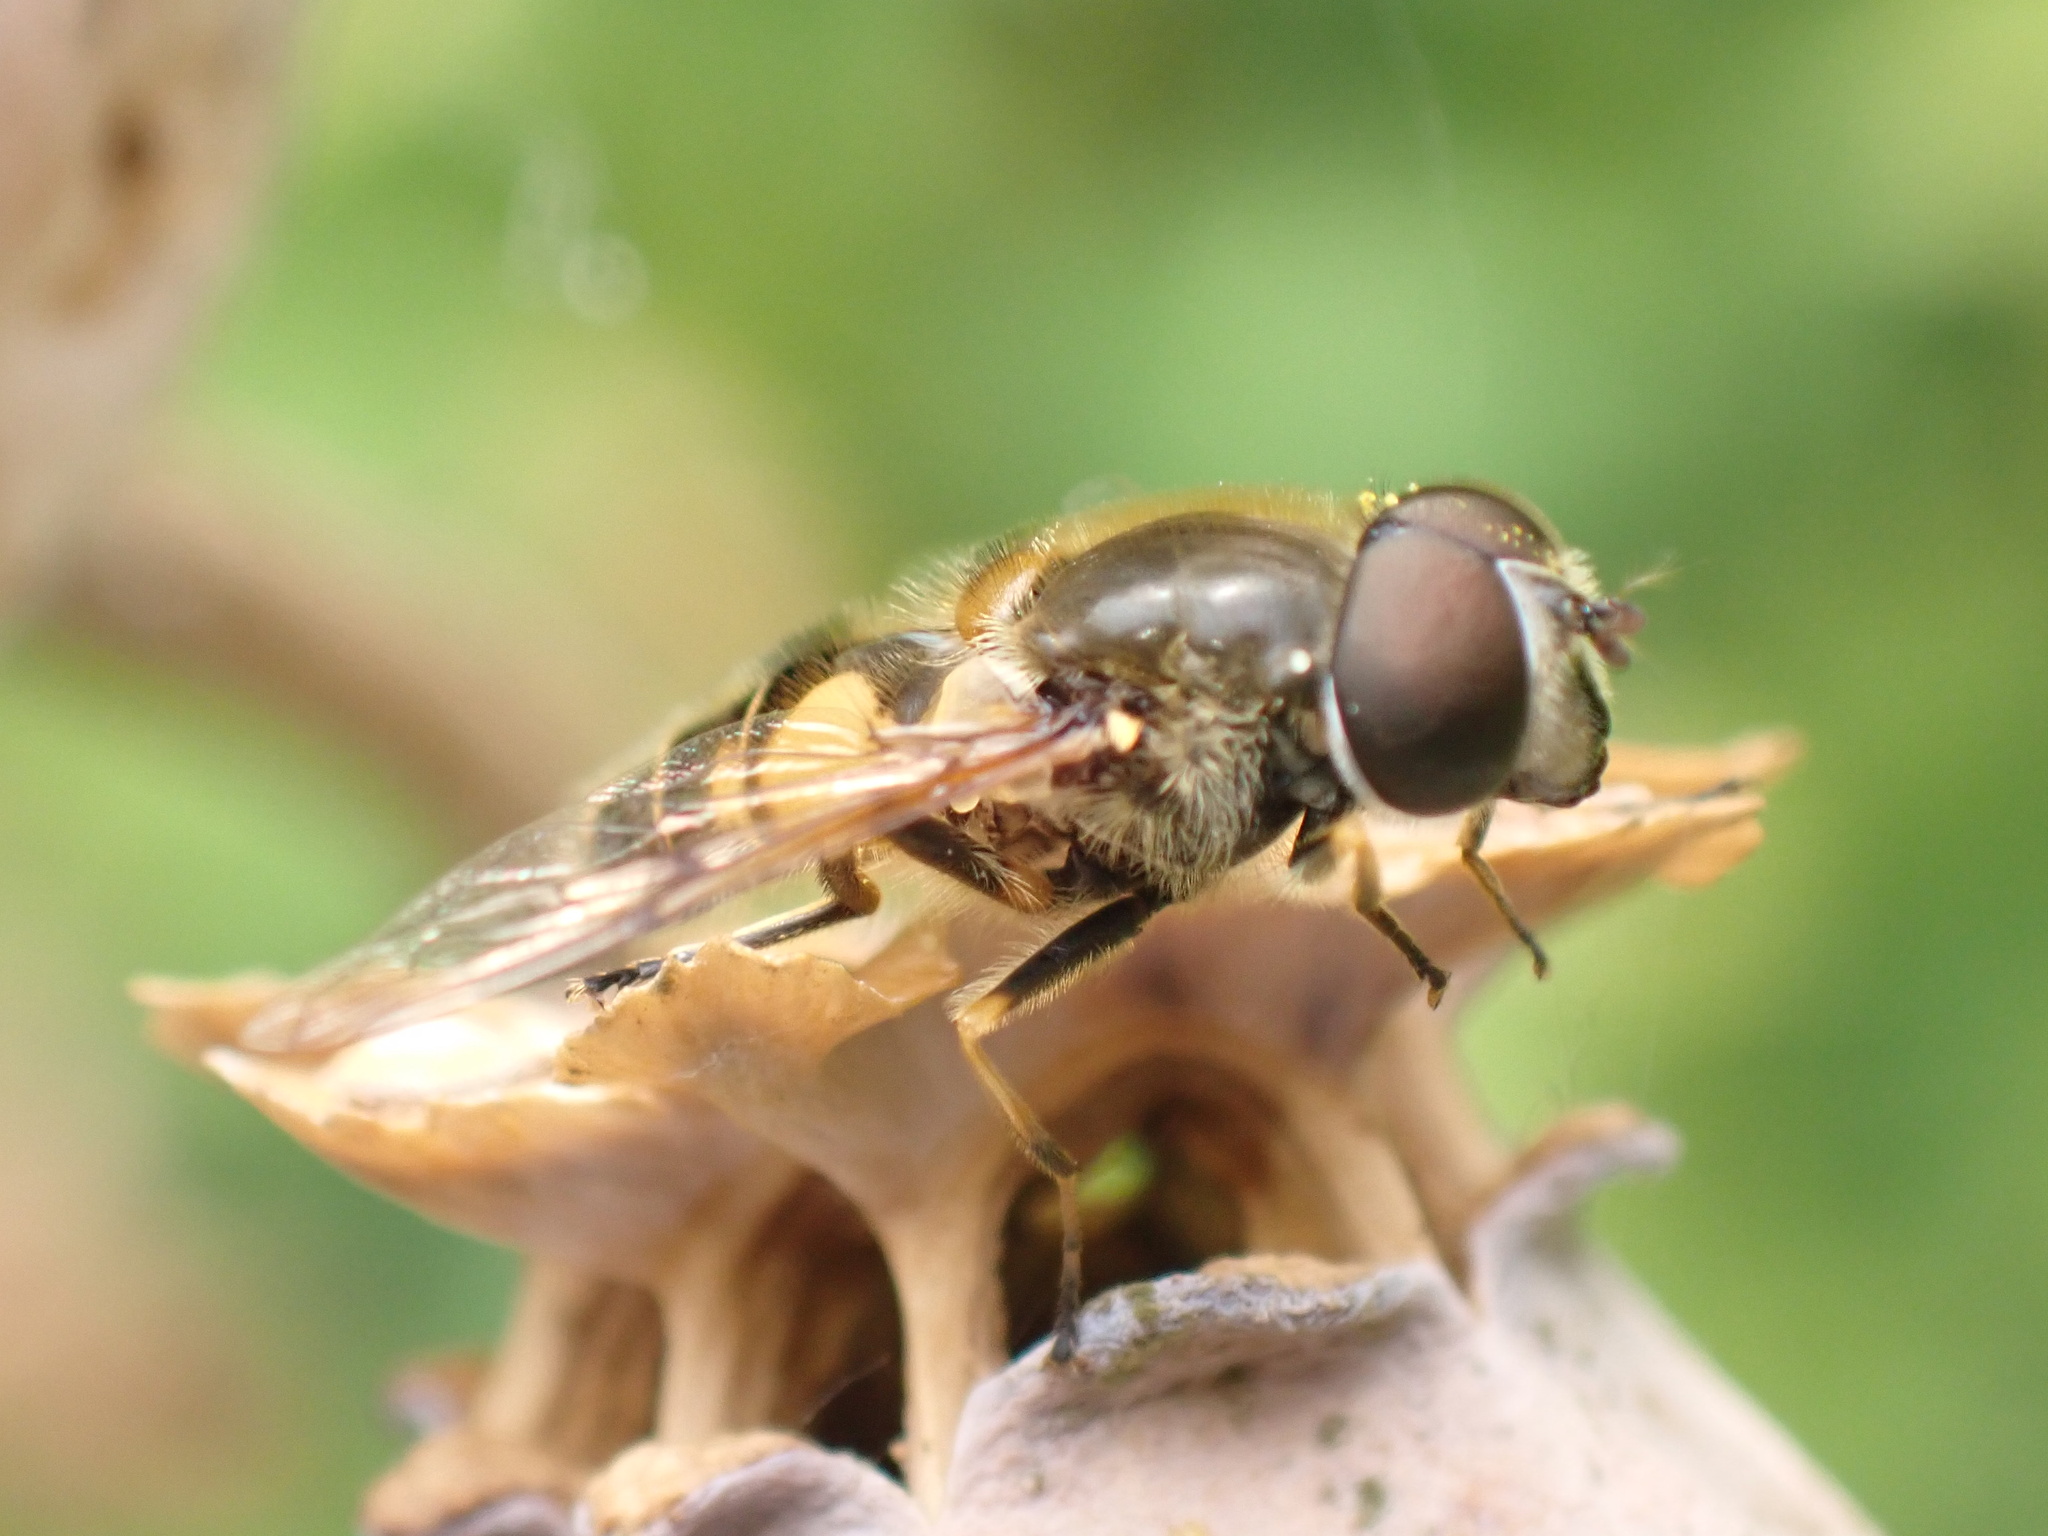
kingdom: Animalia
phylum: Arthropoda
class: Insecta
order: Diptera
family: Syrphidae
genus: Cheilosia
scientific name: Cheilosia morio
